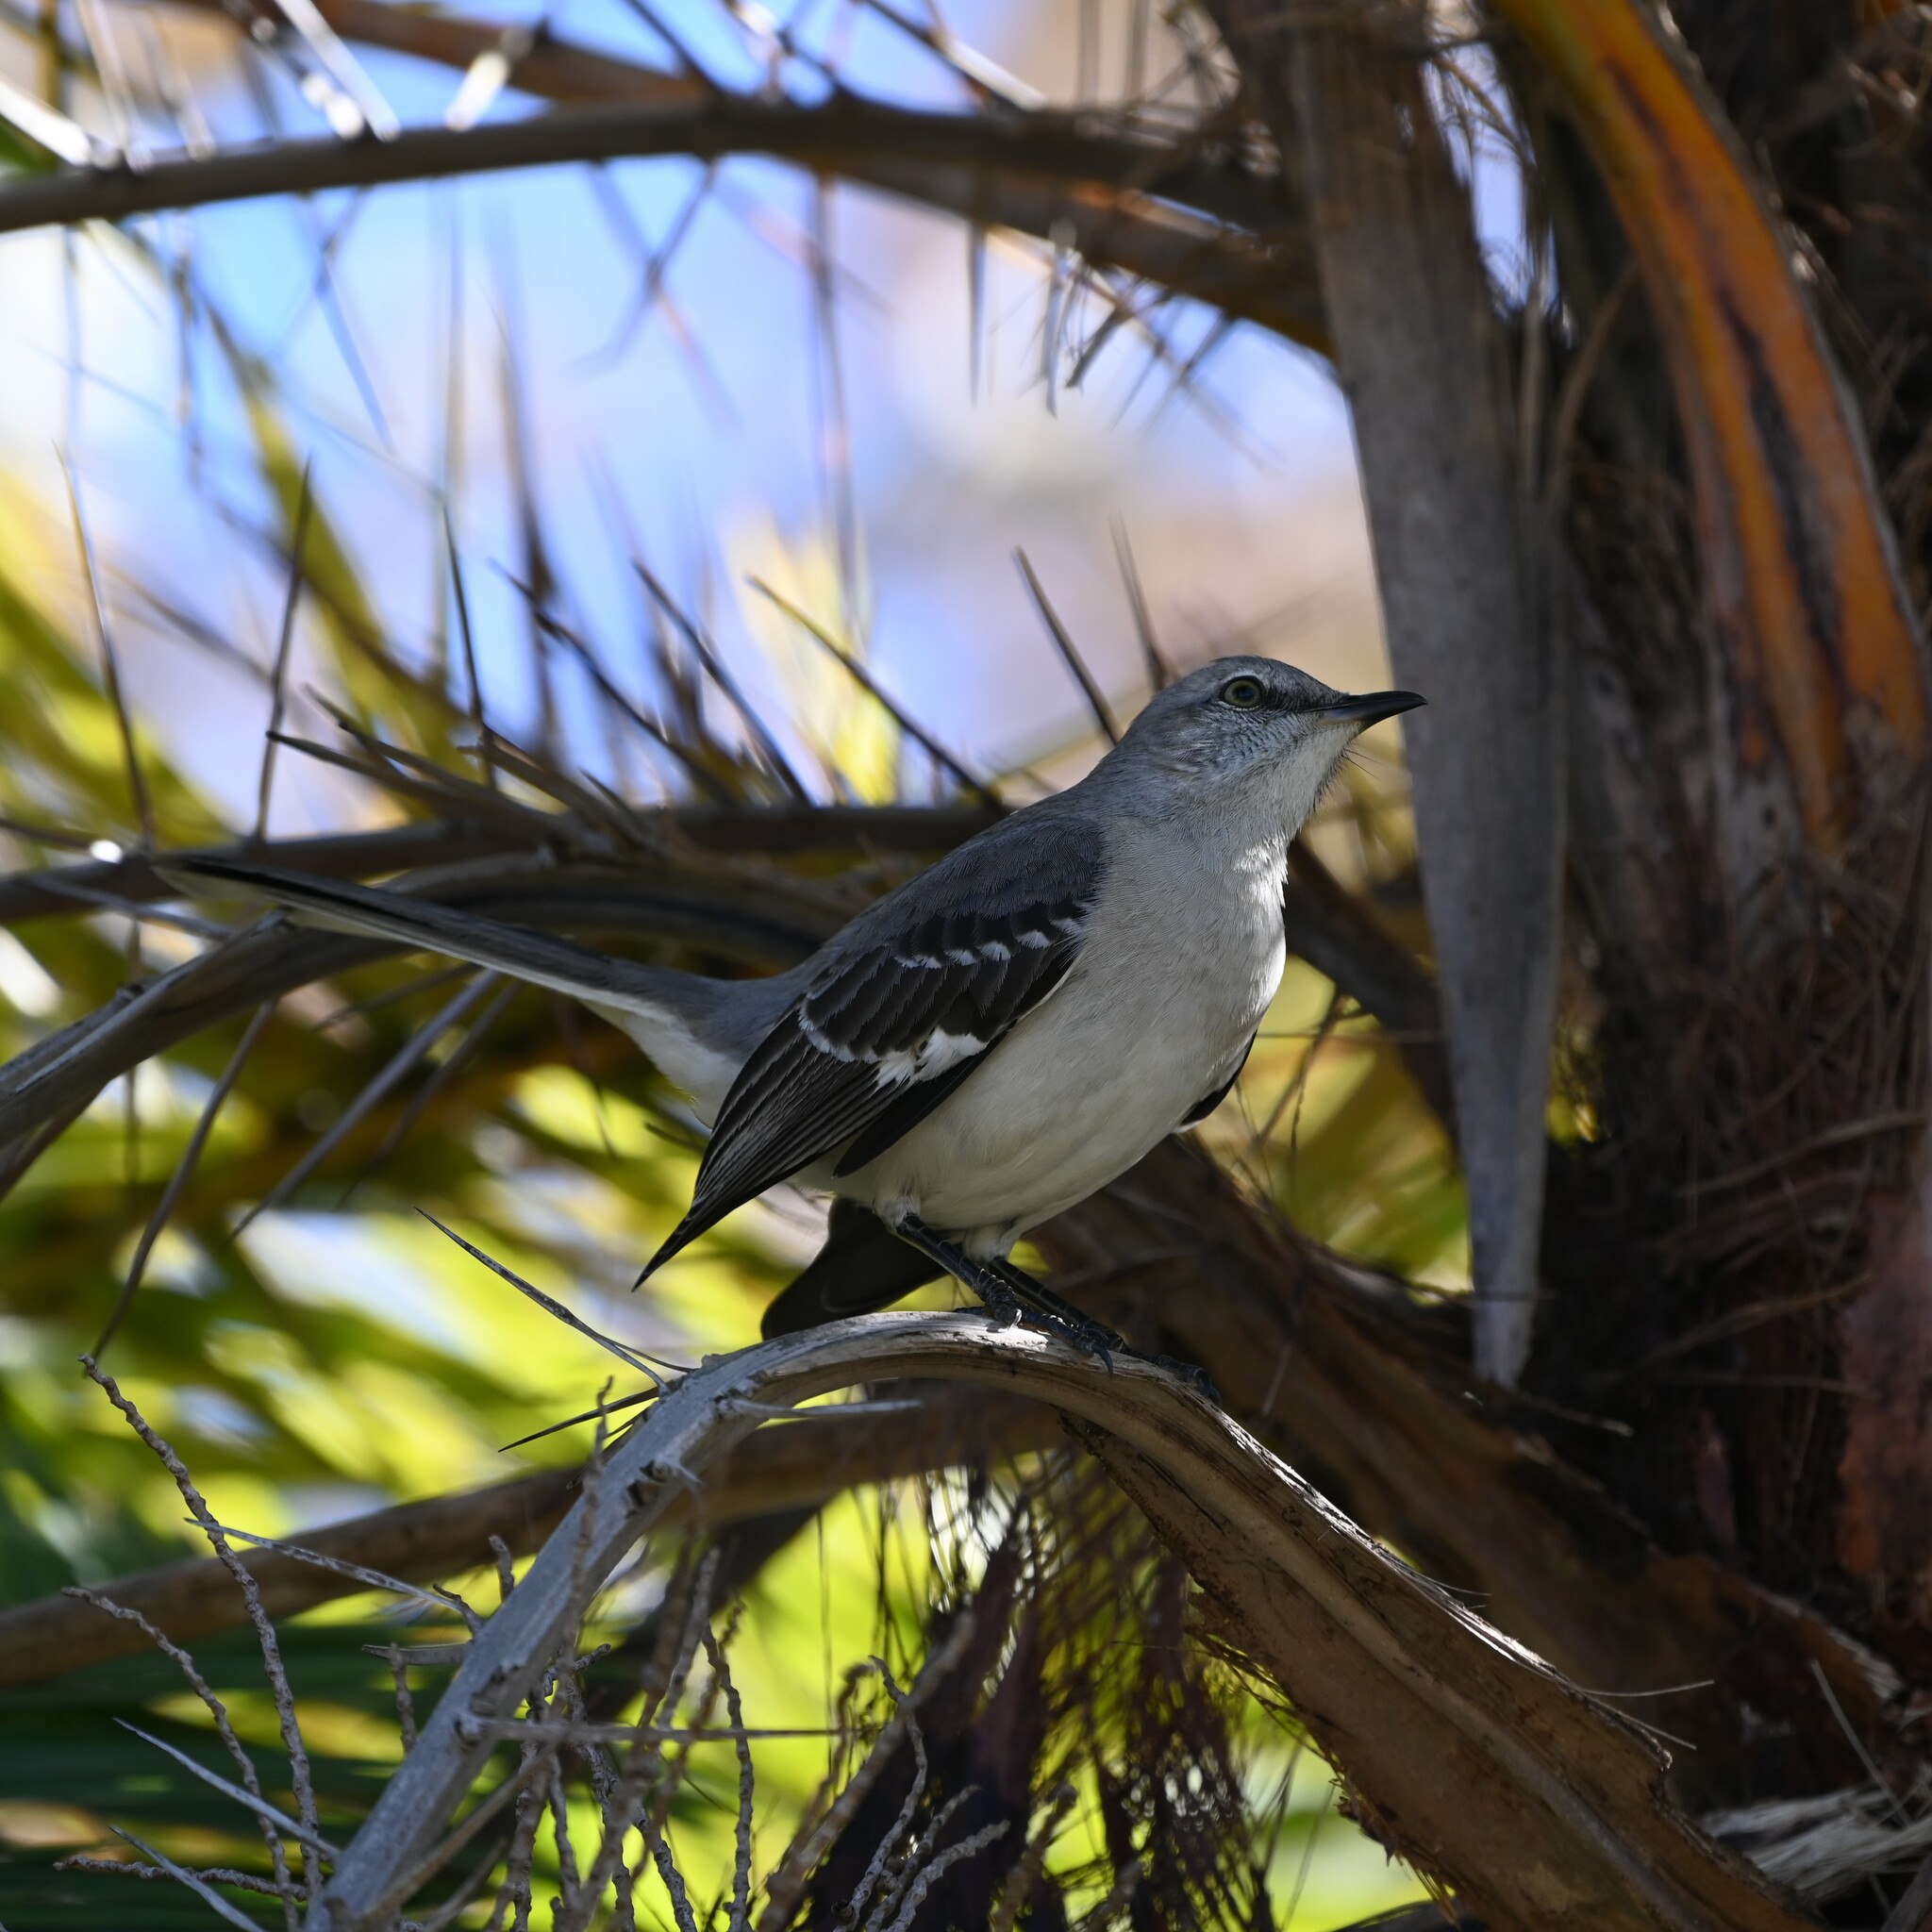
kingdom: Animalia
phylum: Chordata
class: Aves
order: Passeriformes
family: Mimidae
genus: Mimus
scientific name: Mimus polyglottos
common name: Northern mockingbird
